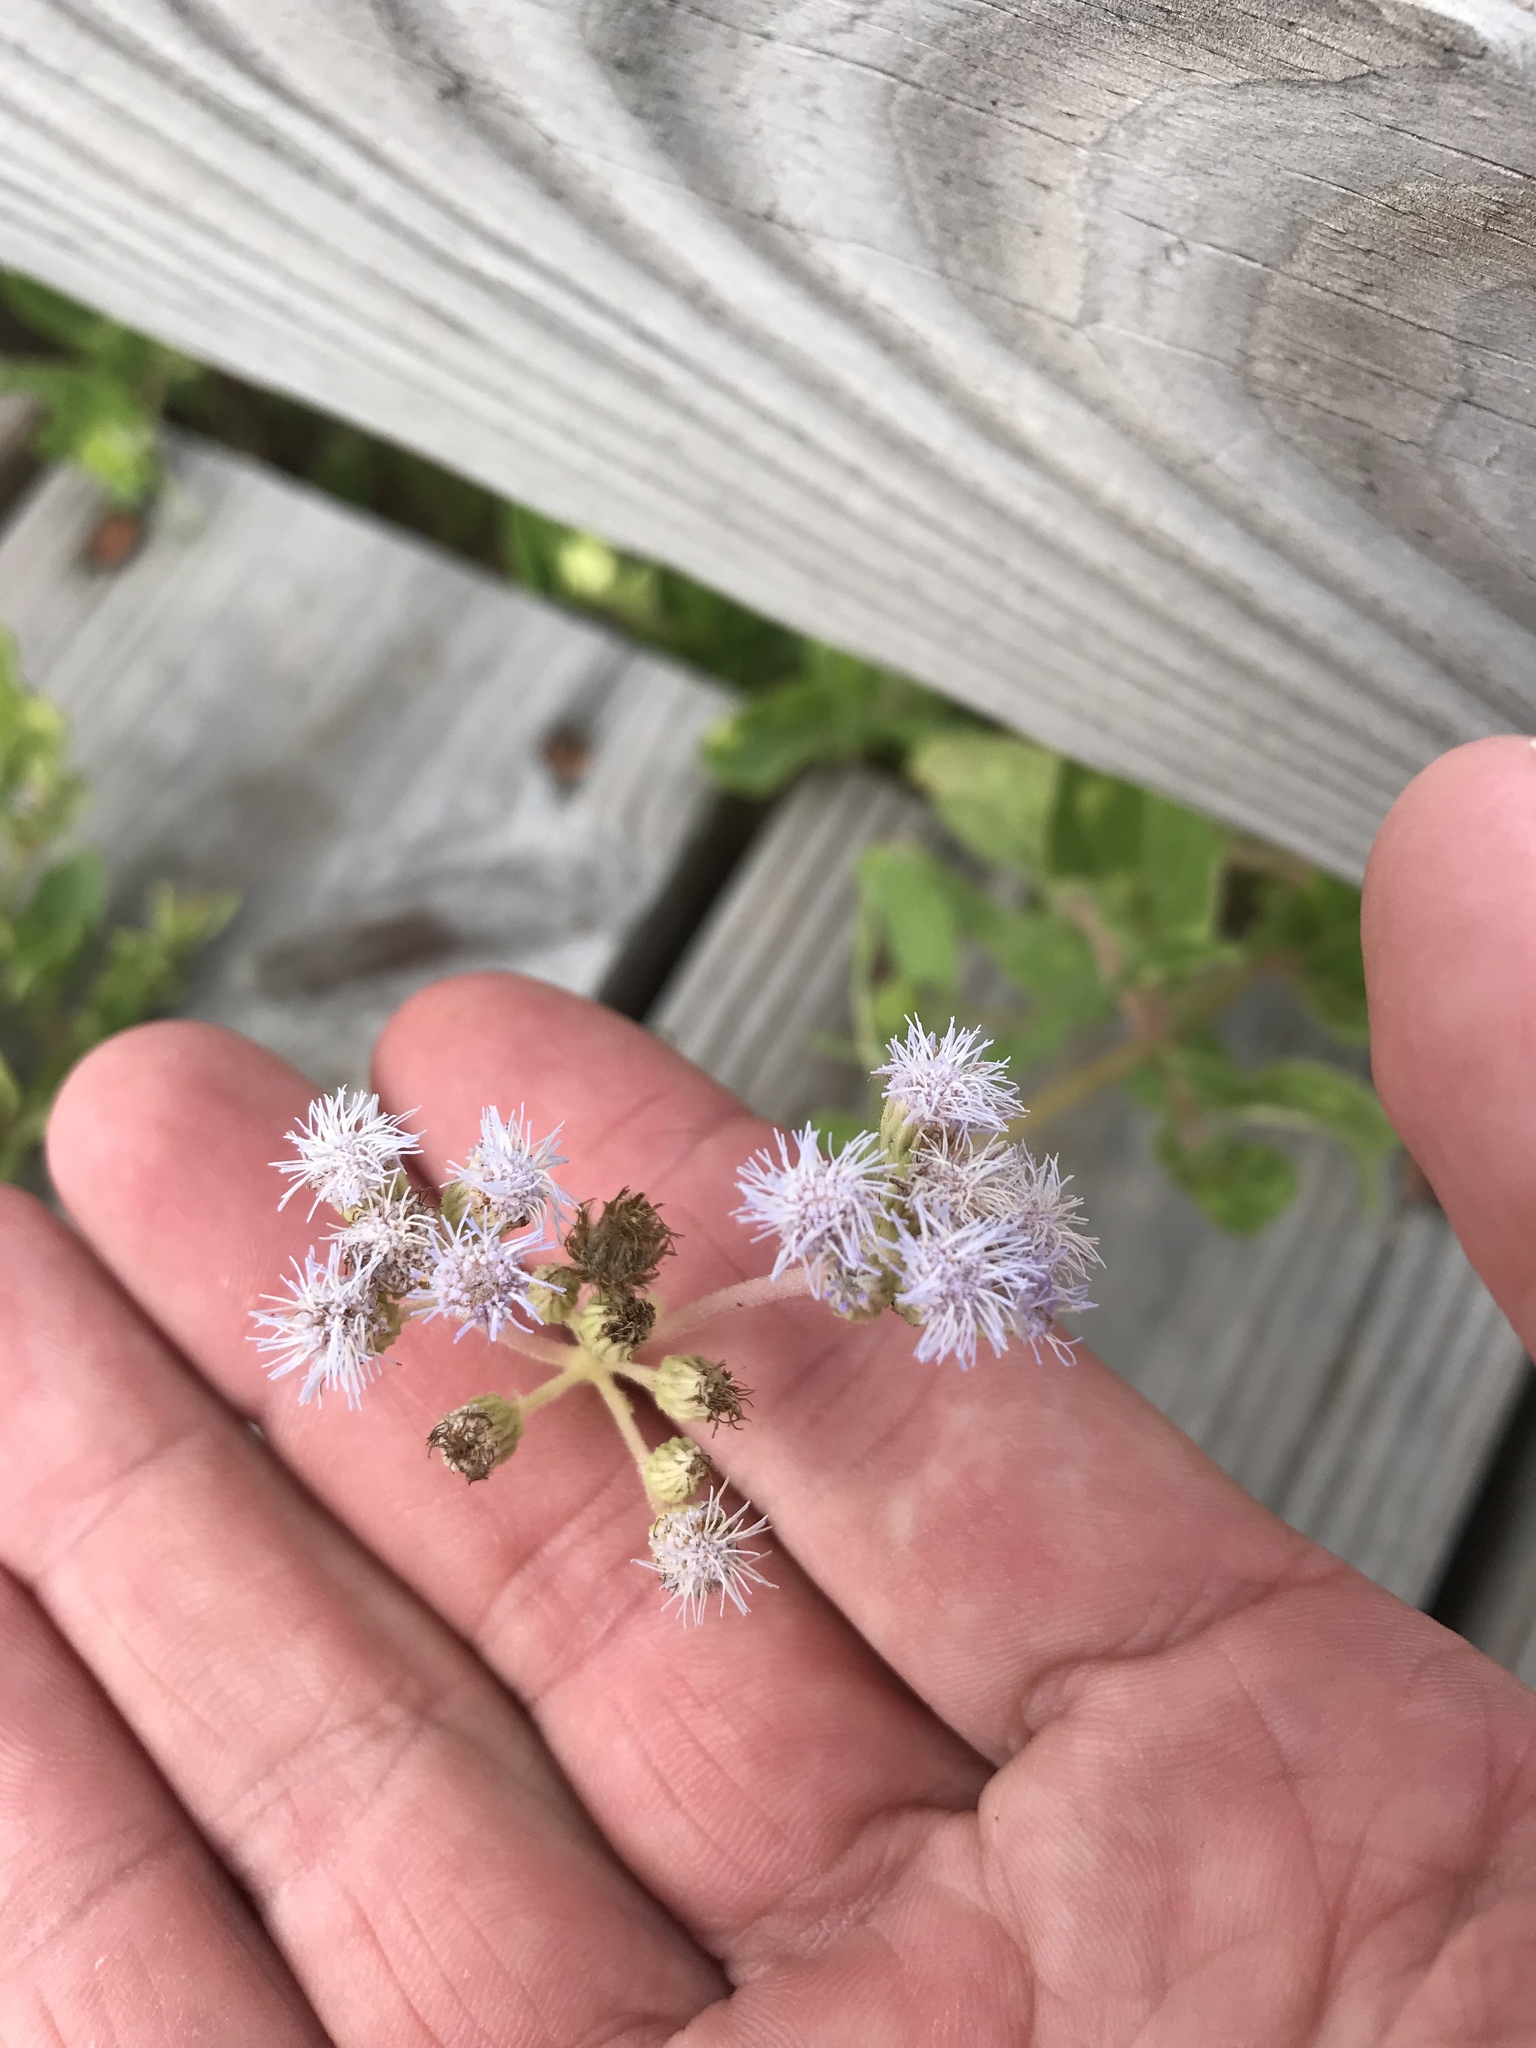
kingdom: Plantae
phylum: Tracheophyta
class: Magnoliopsida
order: Asterales
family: Asteraceae
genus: Conoclinium
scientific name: Conoclinium betonicifolium
